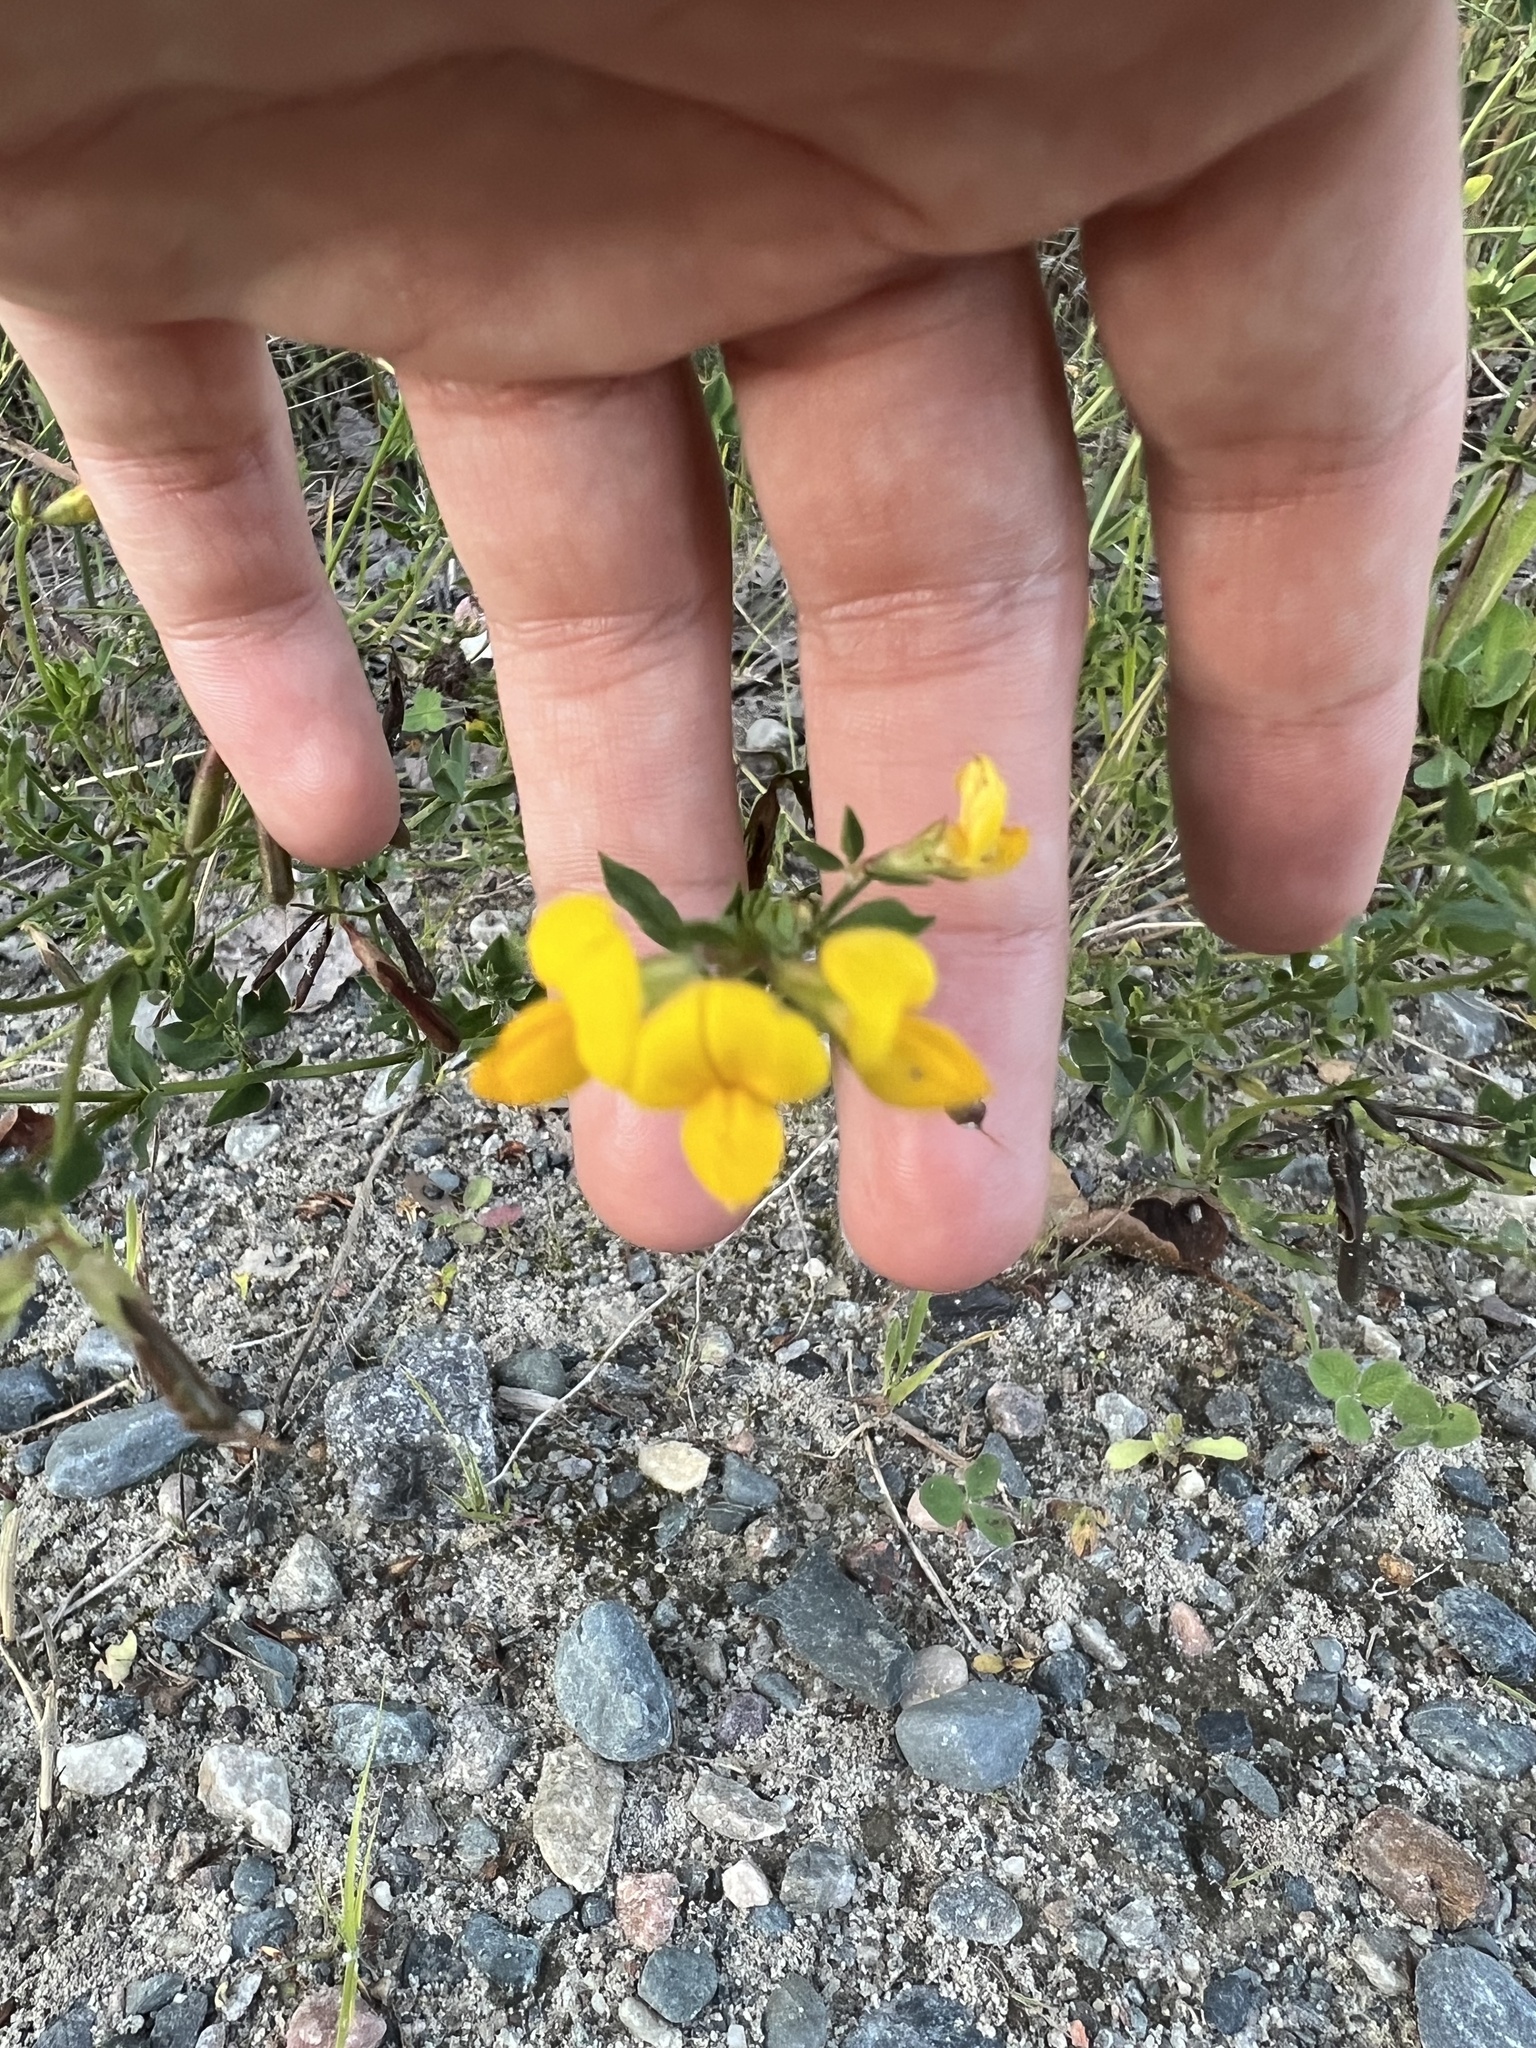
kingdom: Plantae
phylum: Tracheophyta
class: Magnoliopsida
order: Fabales
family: Fabaceae
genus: Lotus
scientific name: Lotus corniculatus
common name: Common bird's-foot-trefoil
